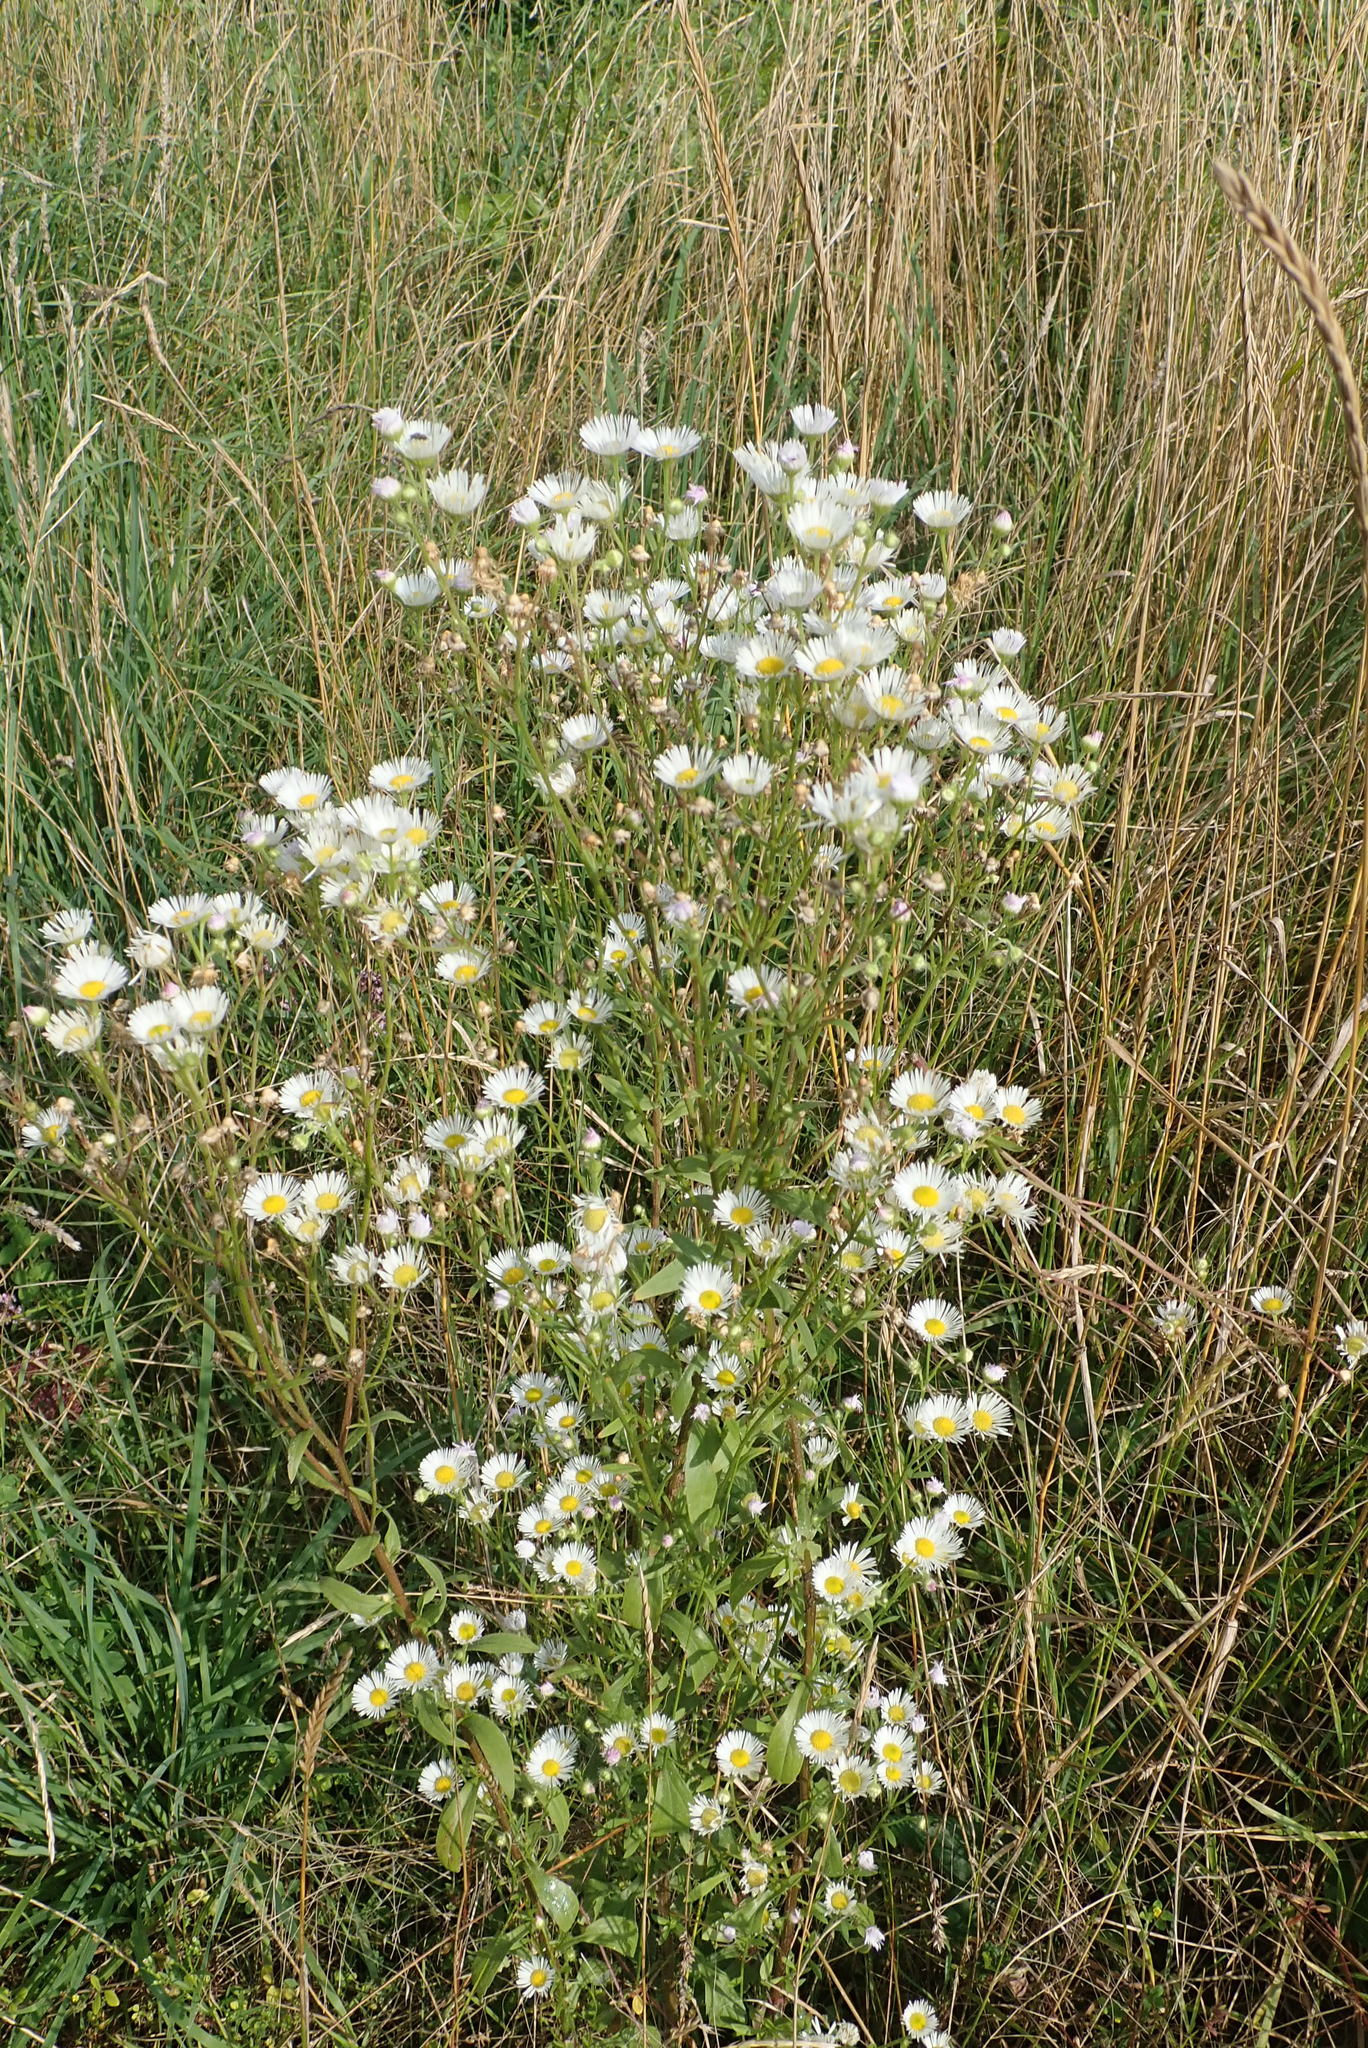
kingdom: Plantae
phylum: Tracheophyta
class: Magnoliopsida
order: Asterales
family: Asteraceae
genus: Erigeron
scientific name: Erigeron annuus
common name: Tall fleabane
